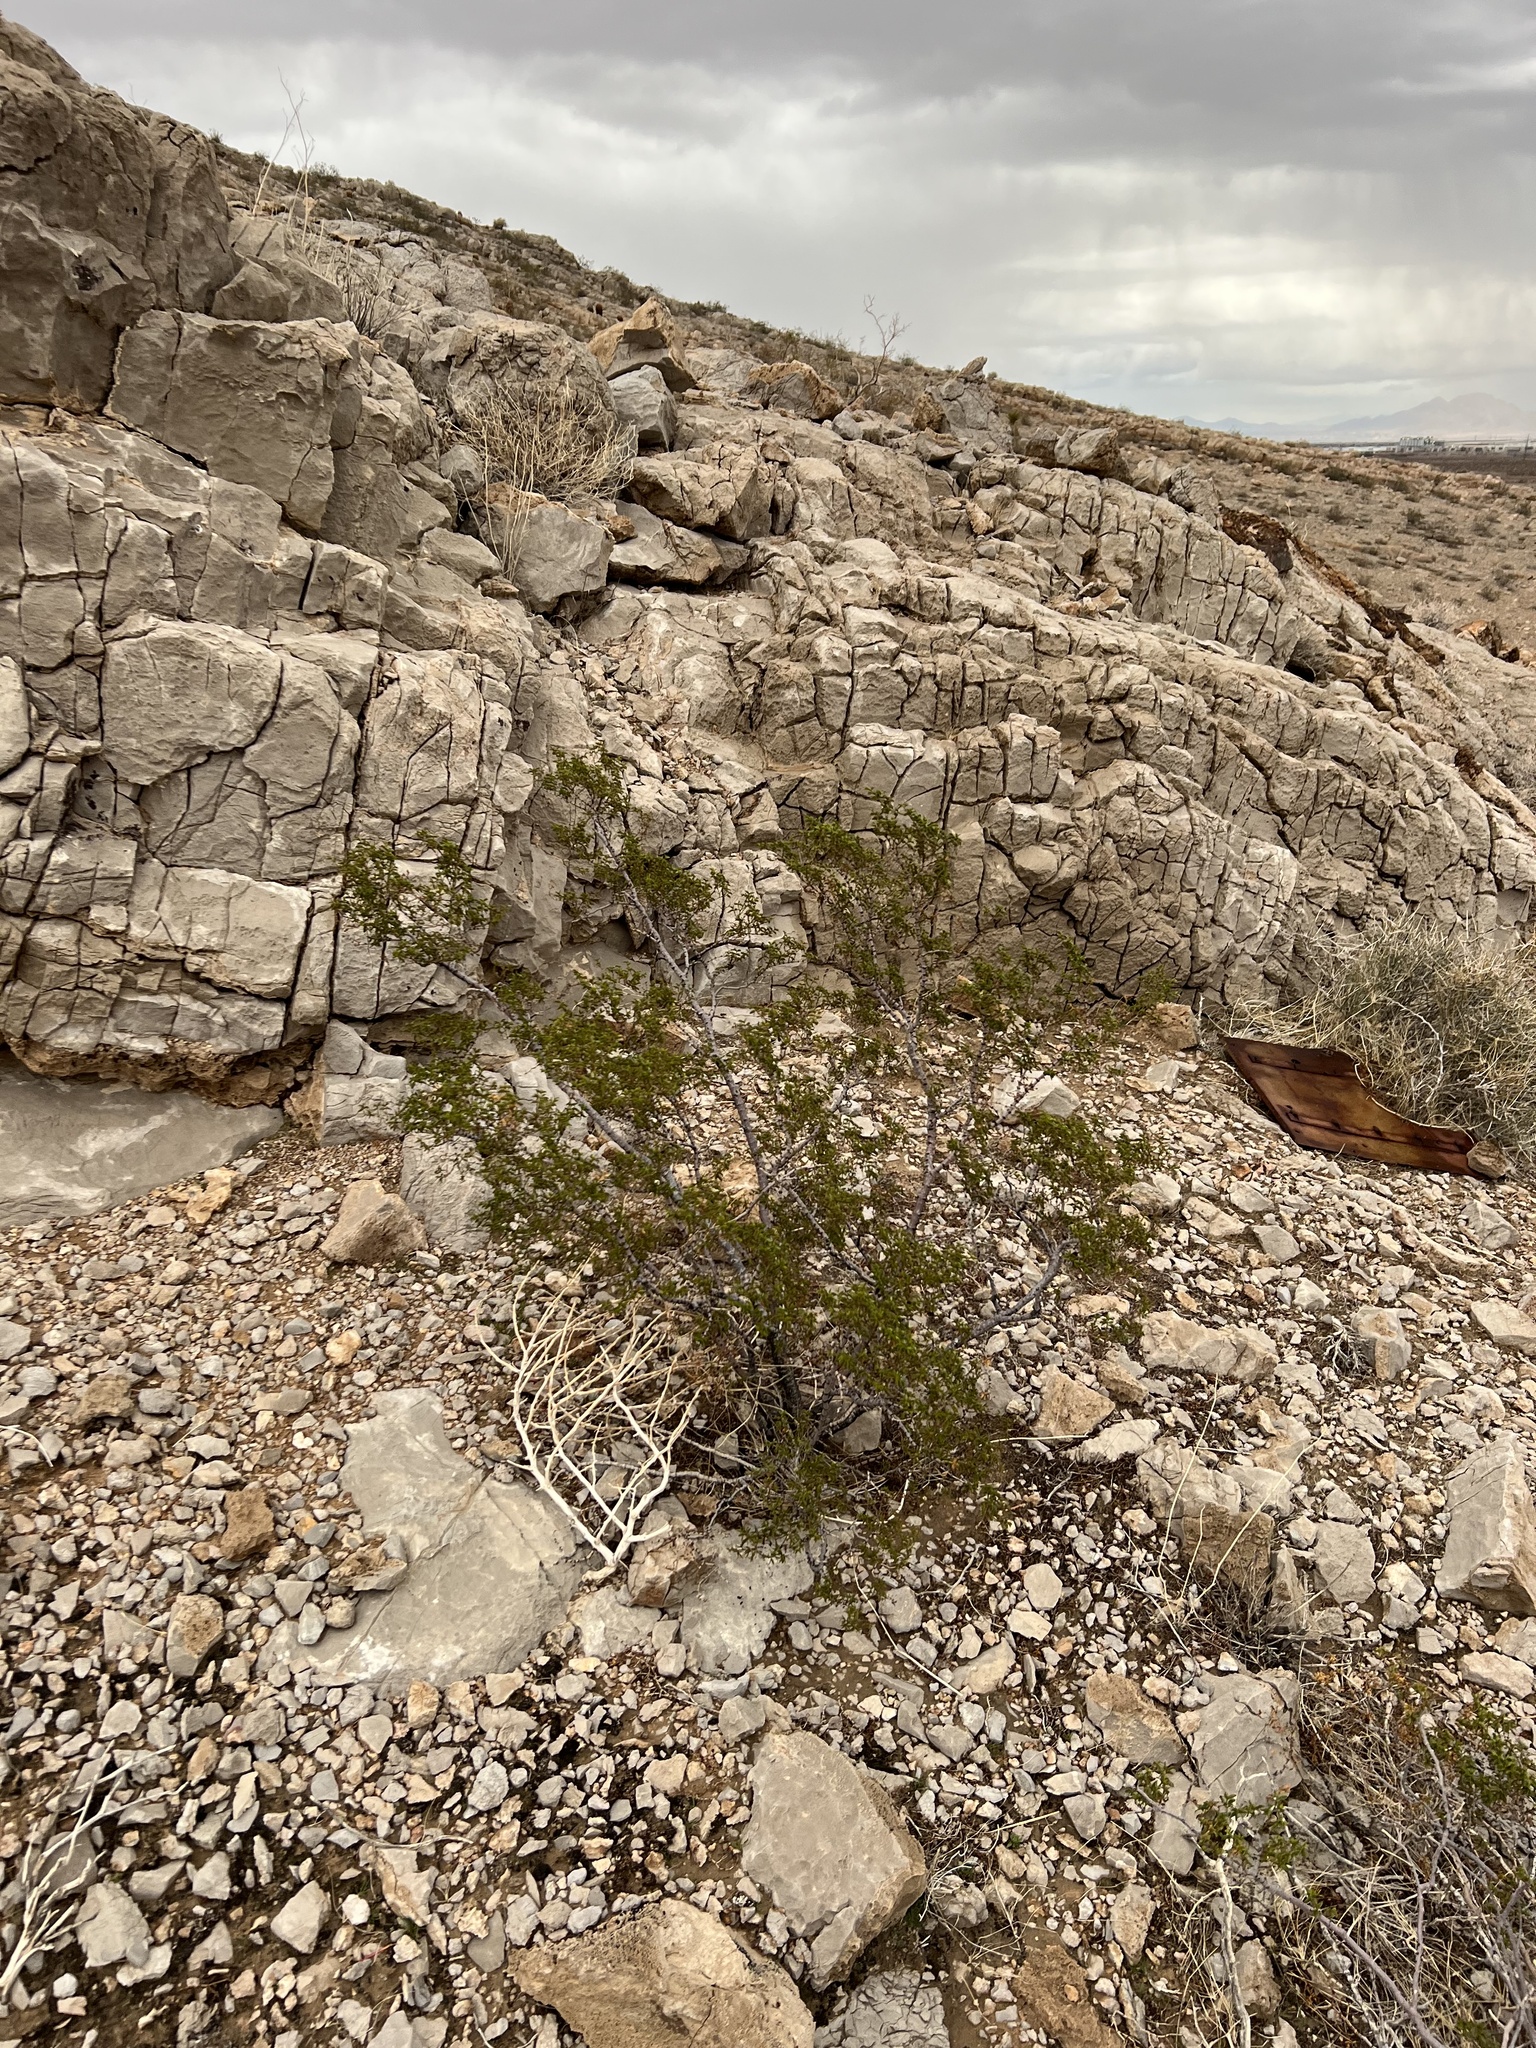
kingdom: Plantae
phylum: Tracheophyta
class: Magnoliopsida
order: Zygophyllales
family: Zygophyllaceae
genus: Larrea
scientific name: Larrea tridentata
